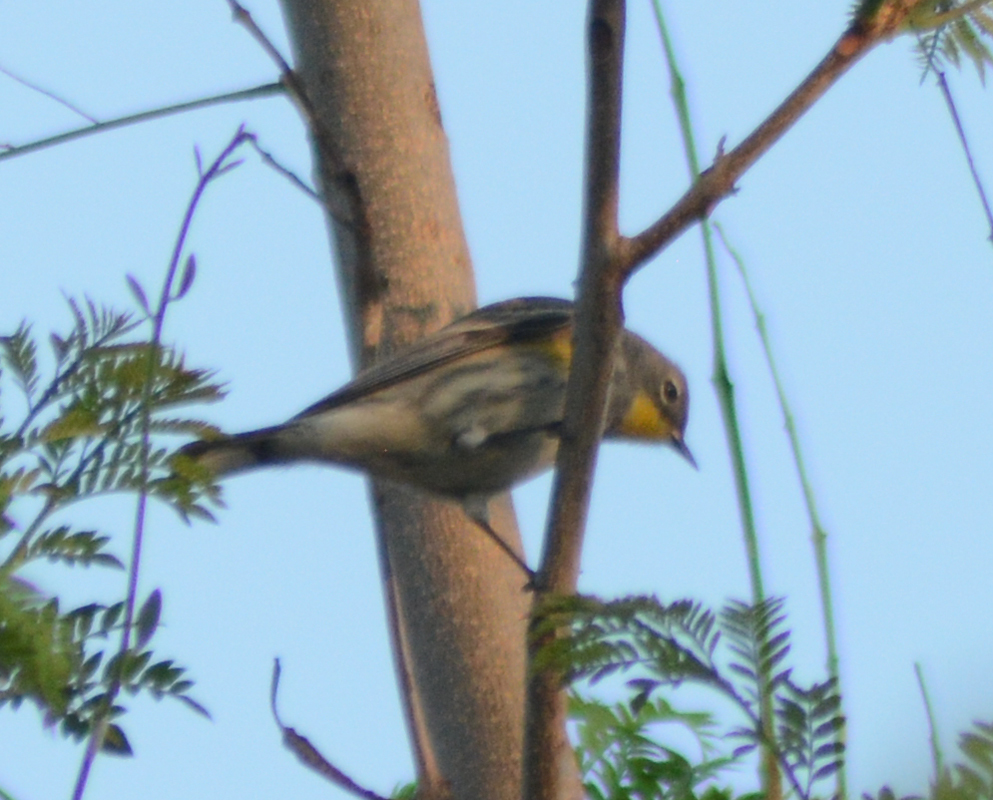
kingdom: Animalia
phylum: Chordata
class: Aves
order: Passeriformes
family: Parulidae
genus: Setophaga
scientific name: Setophaga auduboni
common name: Audubon's warbler
